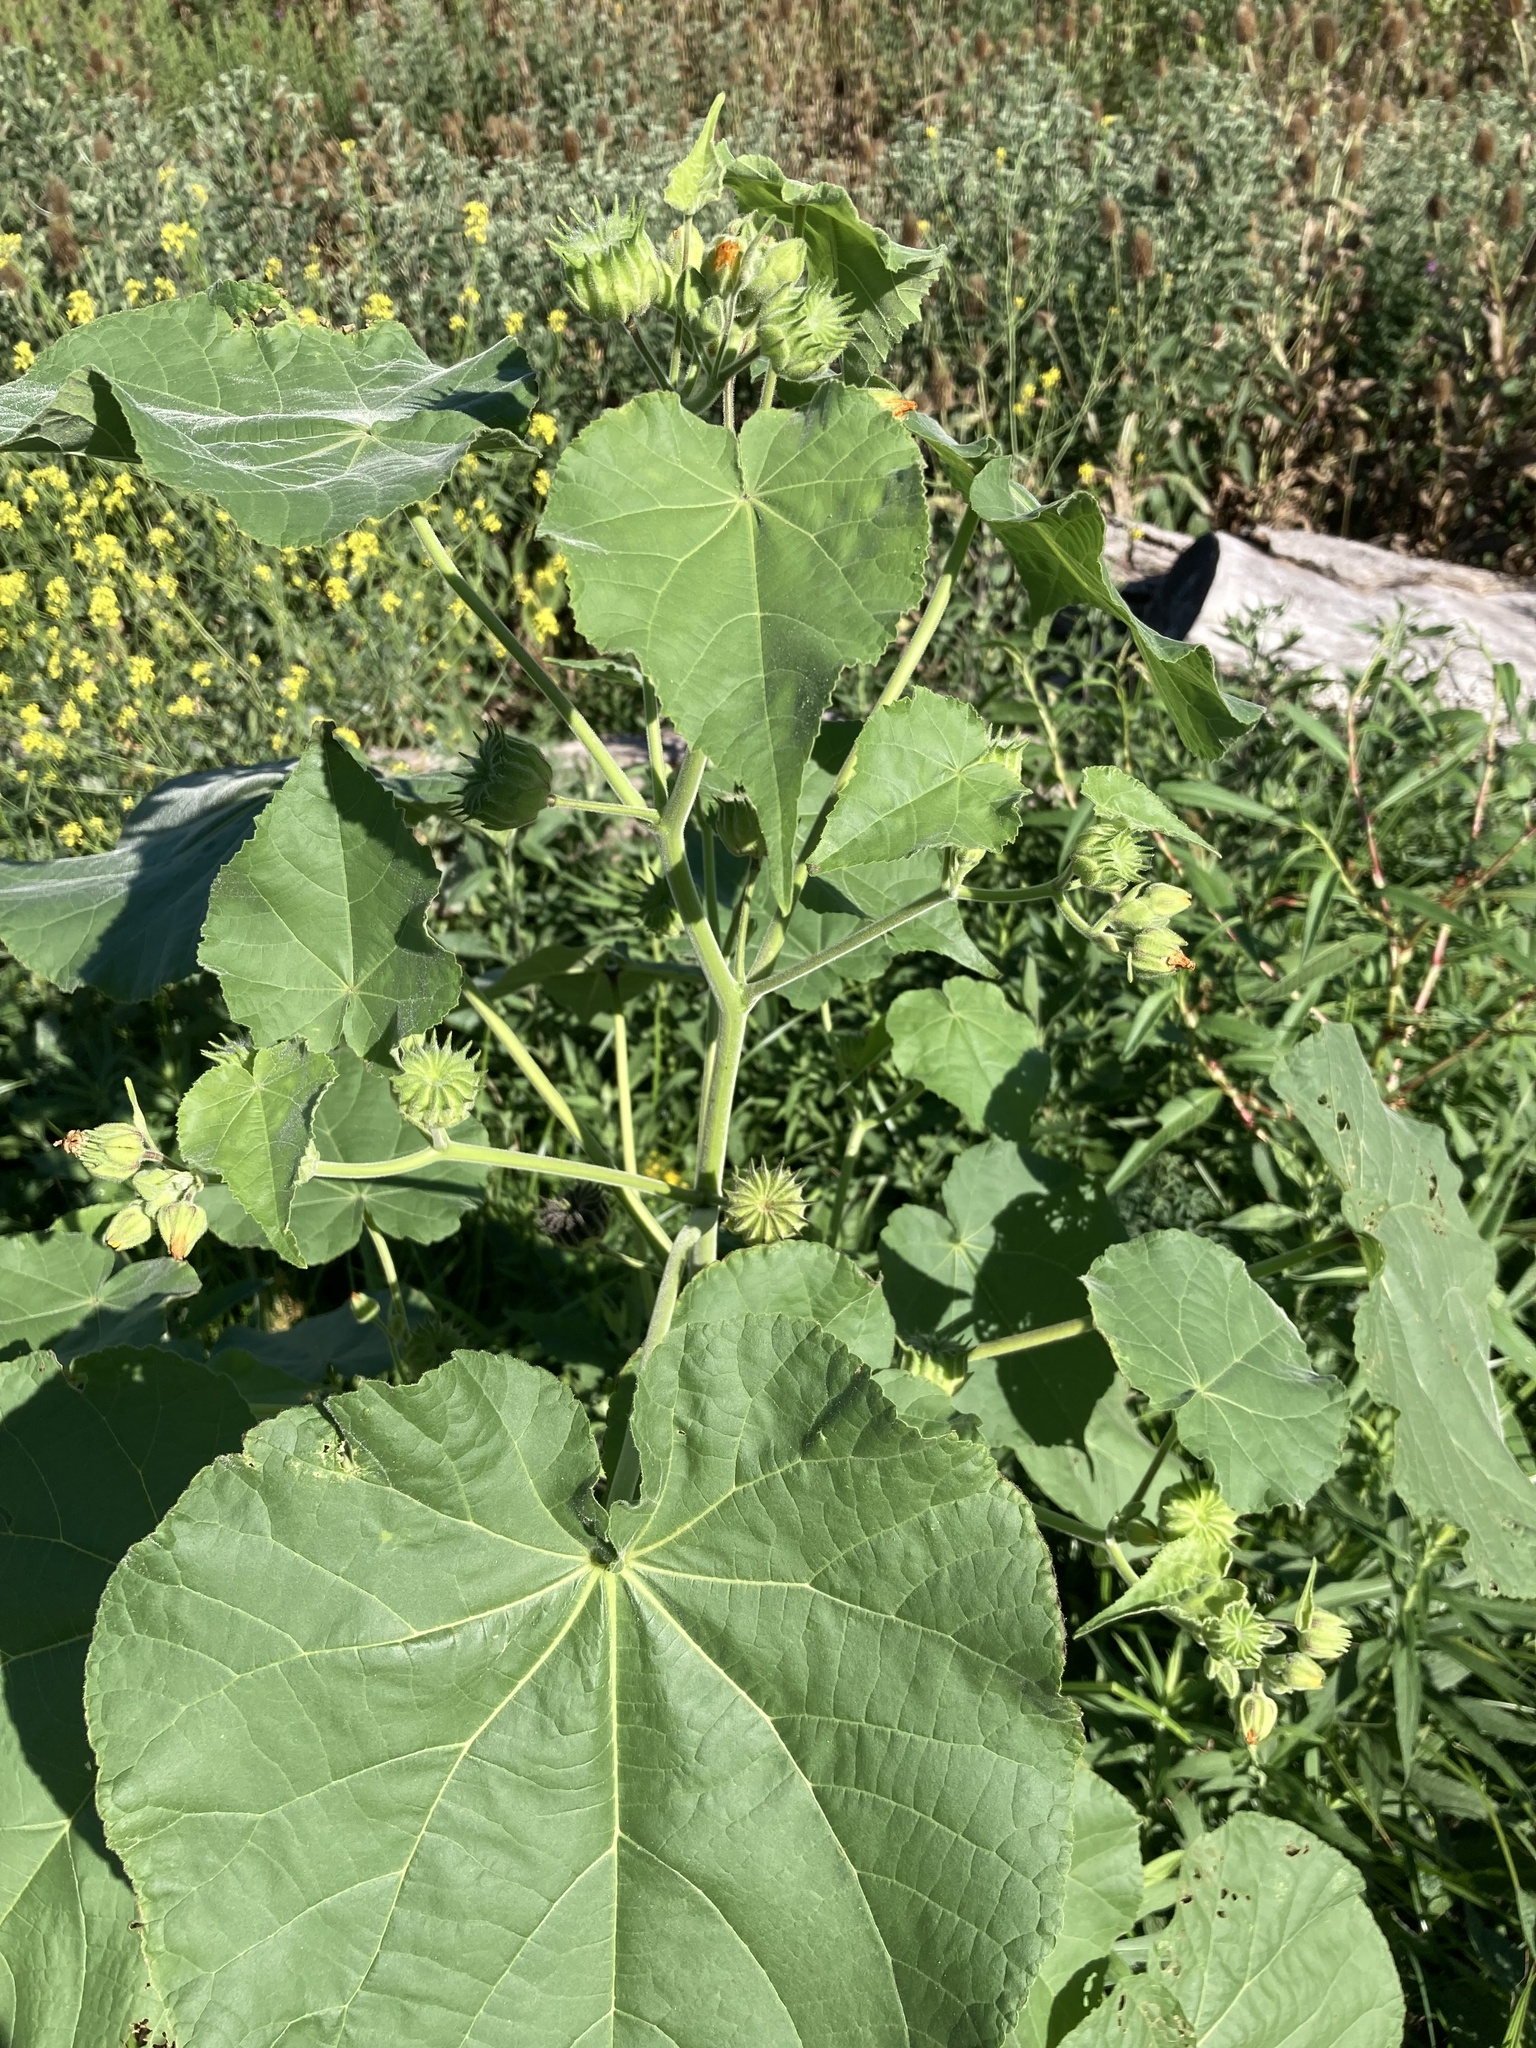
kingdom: Plantae
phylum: Tracheophyta
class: Magnoliopsida
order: Malvales
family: Malvaceae
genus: Abutilon
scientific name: Abutilon theophrasti
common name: Velvetleaf
